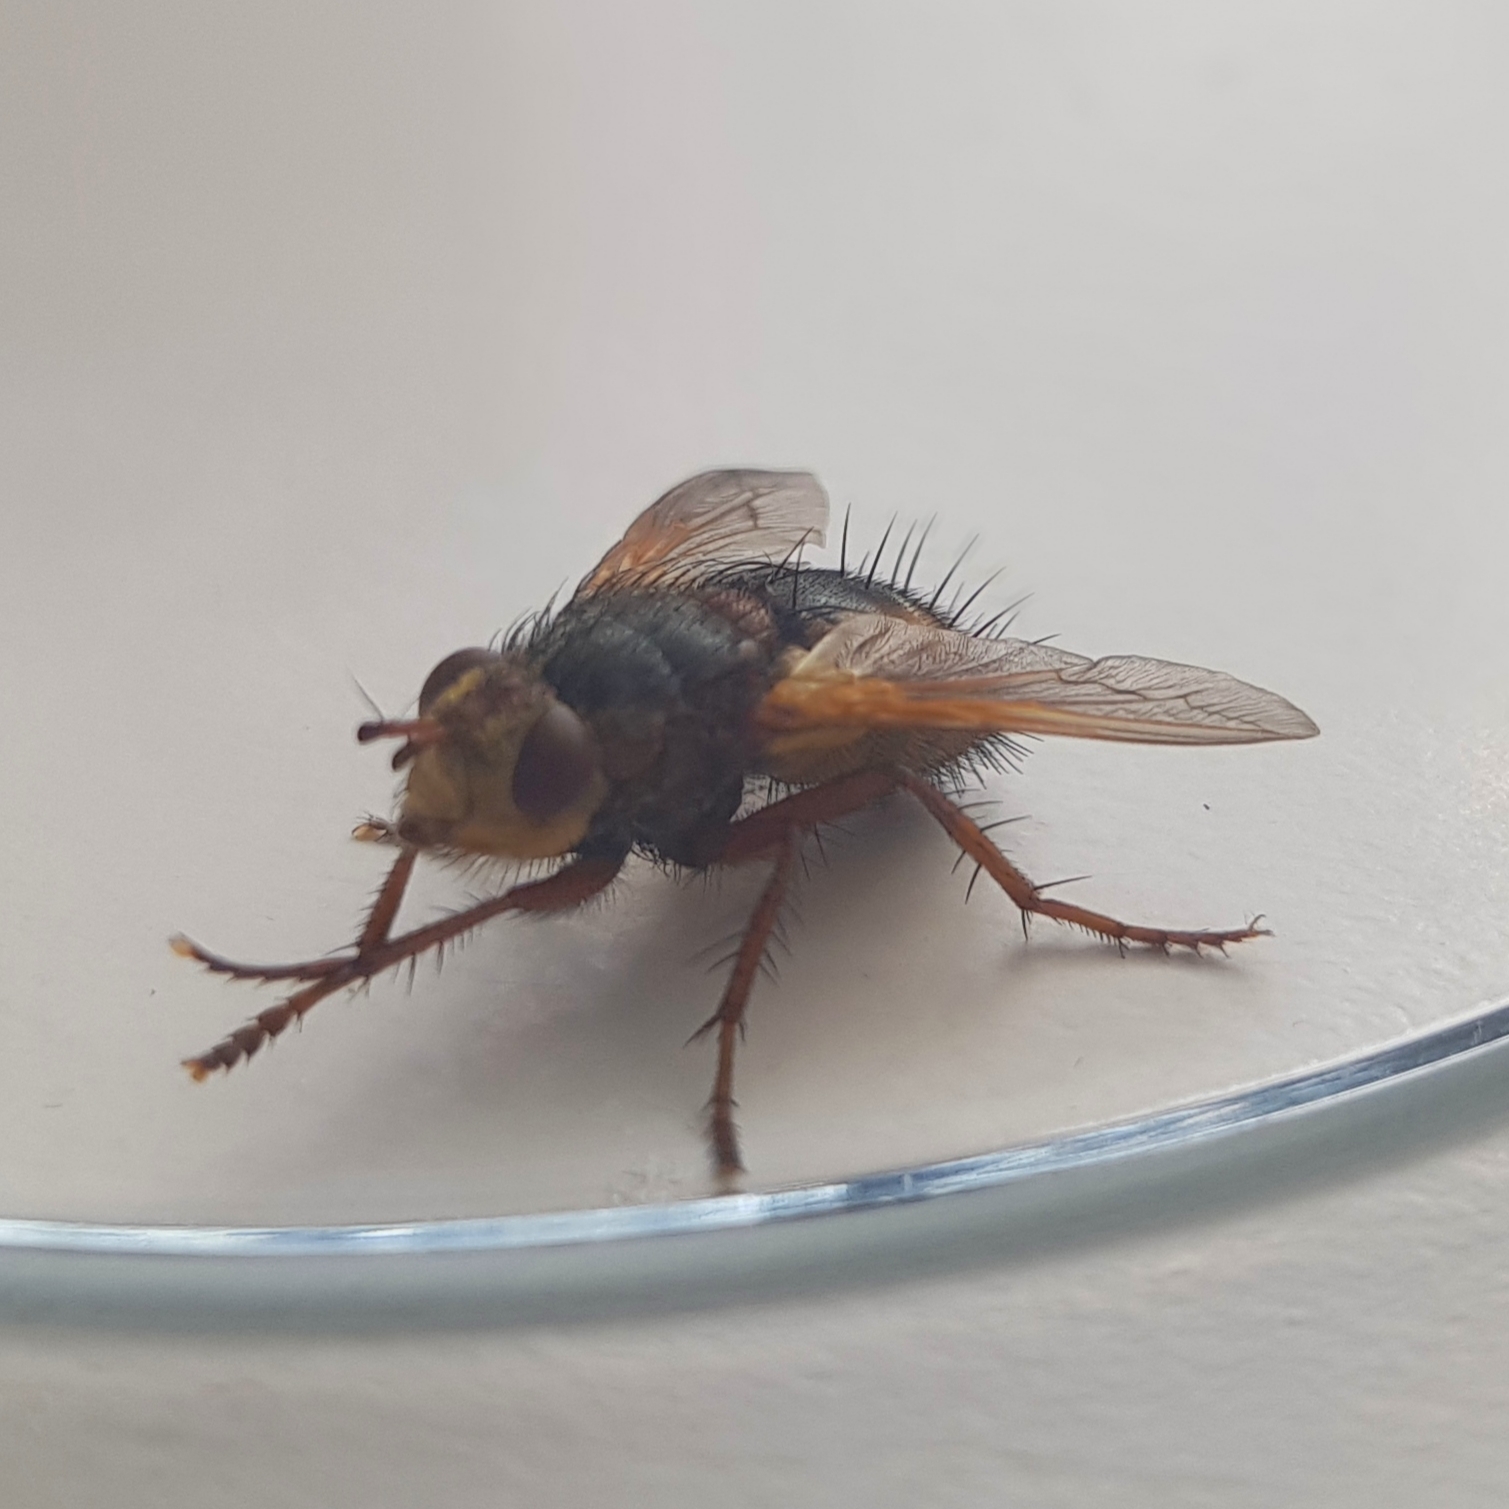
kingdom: Animalia
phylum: Arthropoda
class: Insecta
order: Diptera
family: Tachinidae
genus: Tachina
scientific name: Tachina fera
